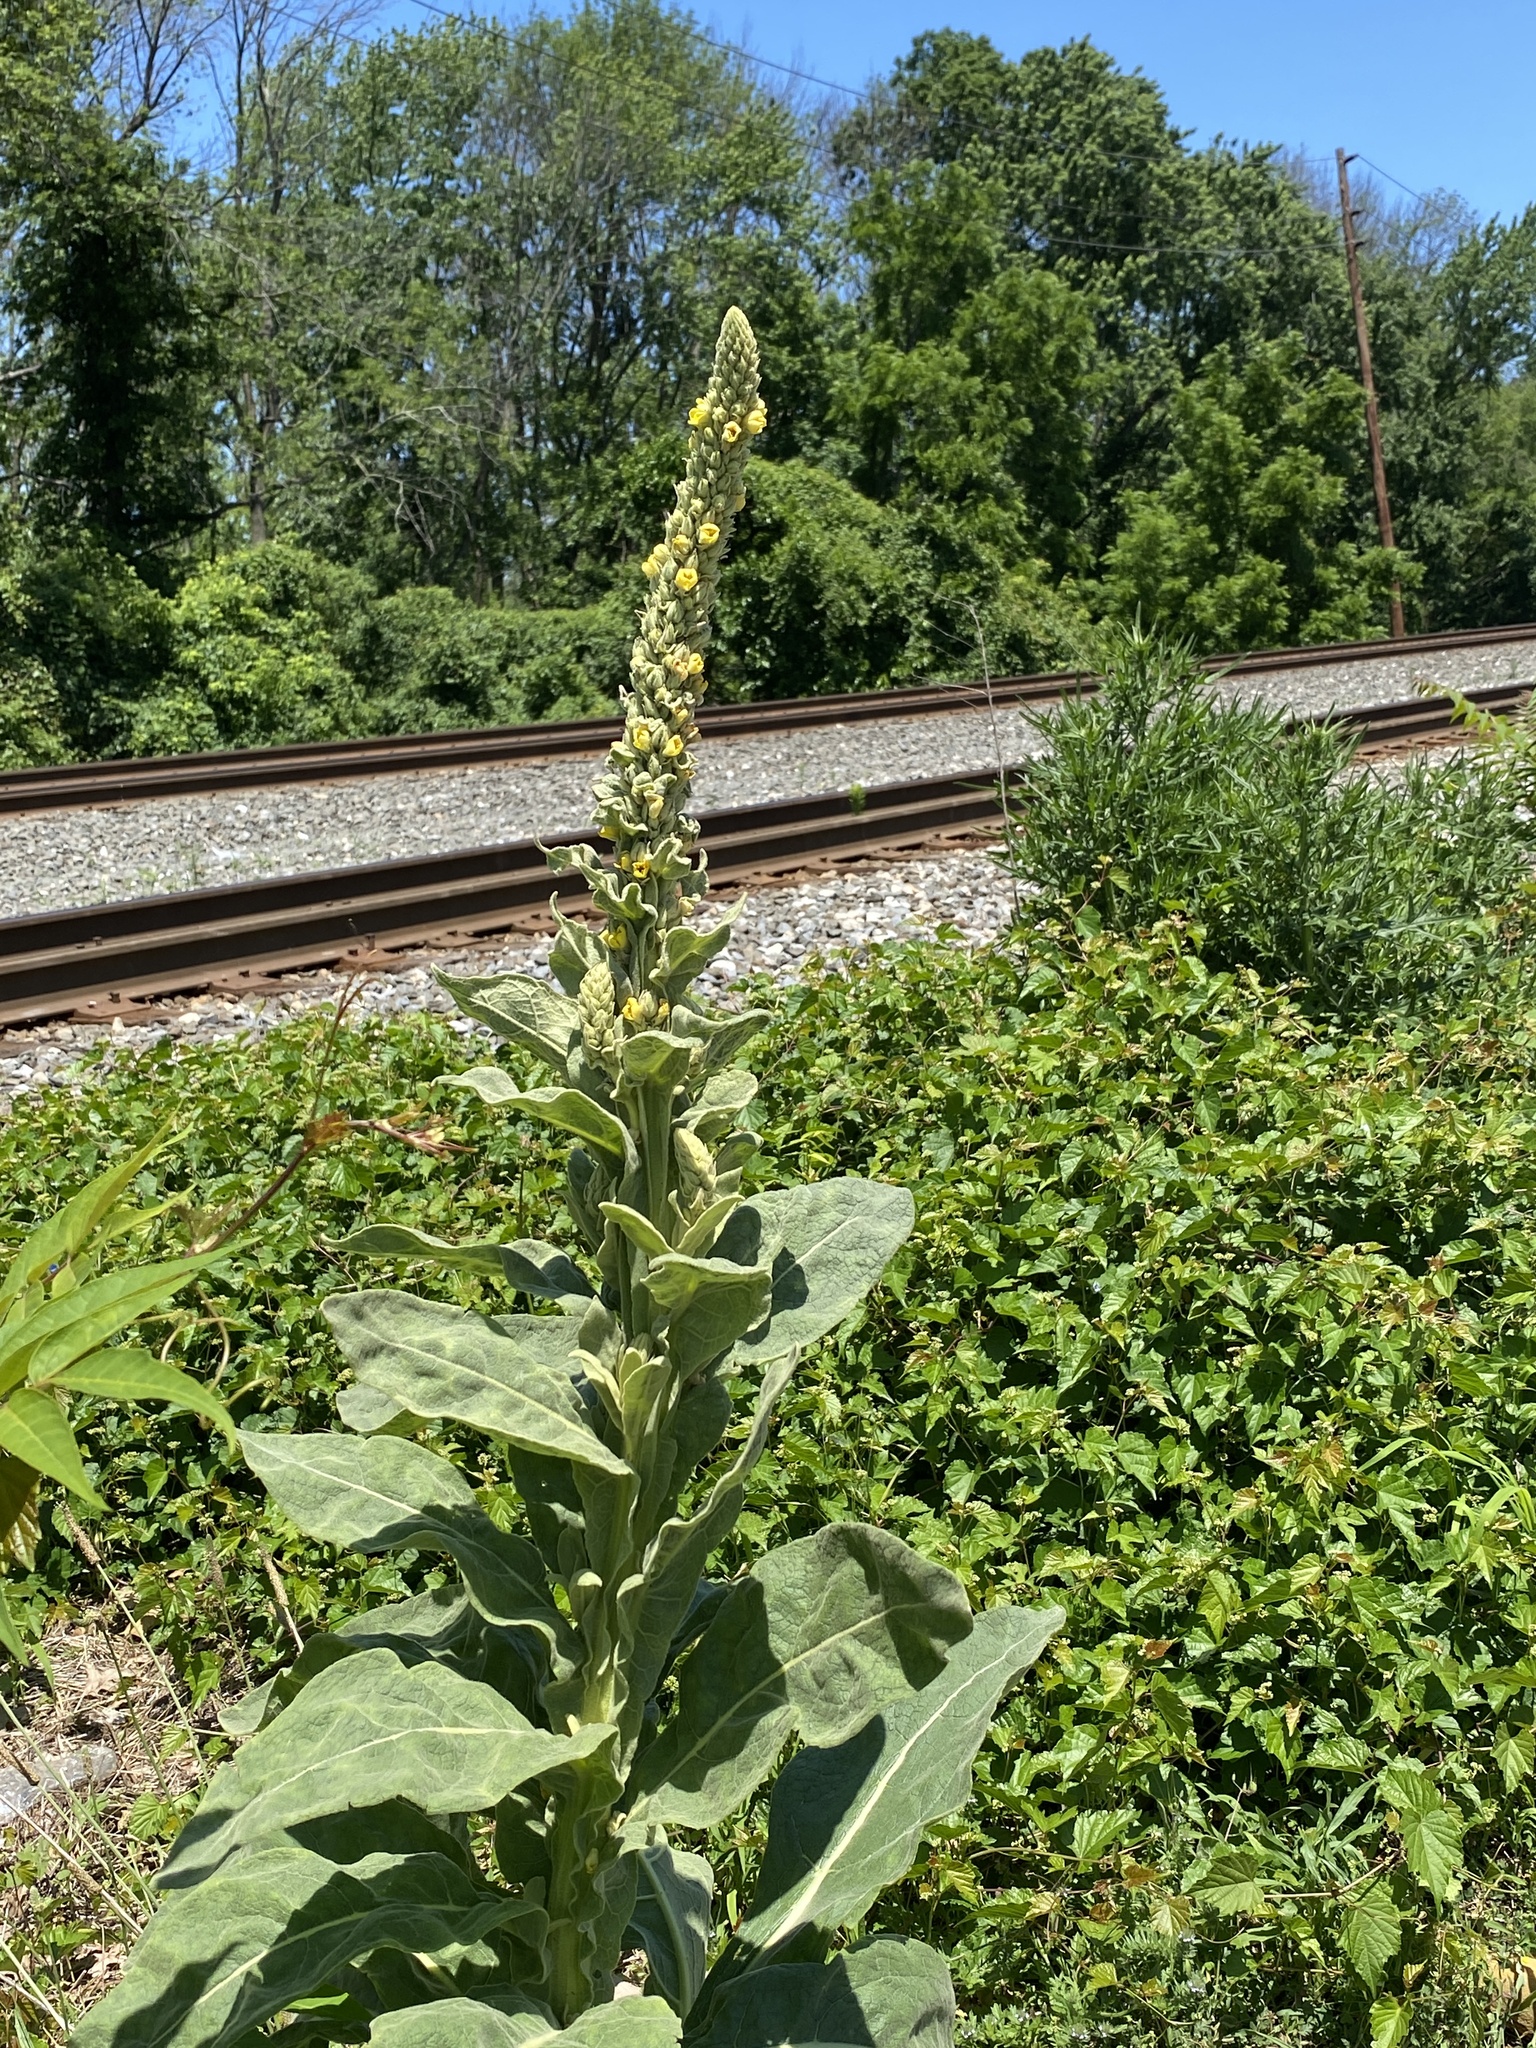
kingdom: Plantae
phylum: Tracheophyta
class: Magnoliopsida
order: Lamiales
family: Scrophulariaceae
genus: Verbascum
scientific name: Verbascum thapsus
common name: Common mullein
